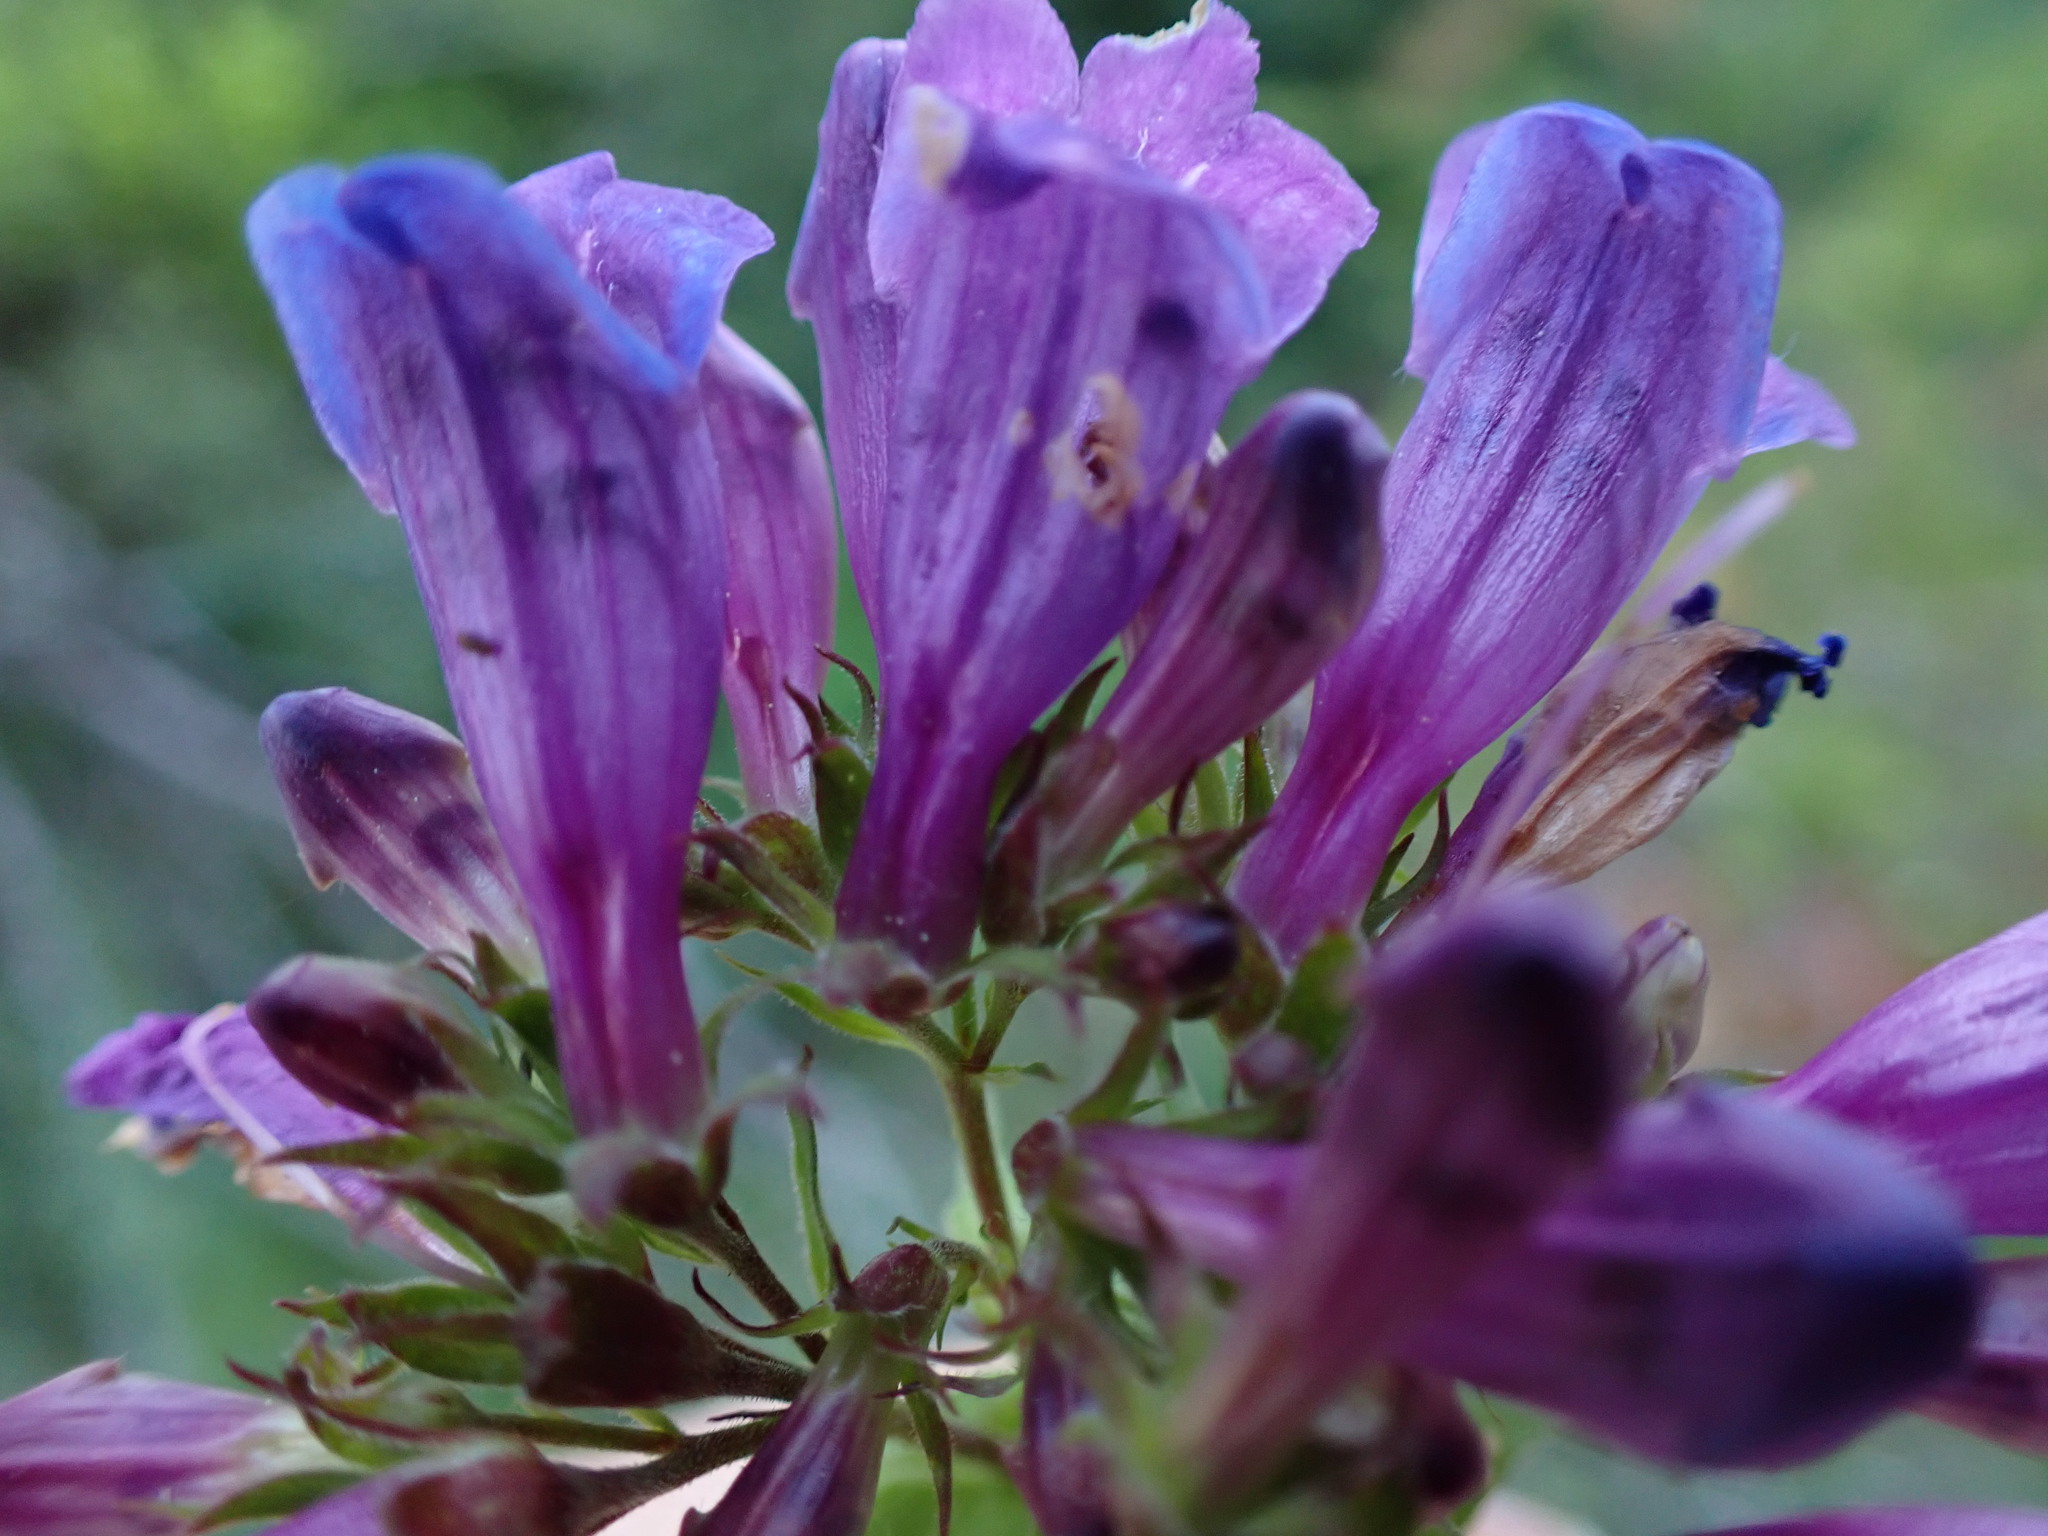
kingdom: Plantae
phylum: Tracheophyta
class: Magnoliopsida
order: Lamiales
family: Plantaginaceae
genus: Penstemon
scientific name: Penstemon serrulatus
